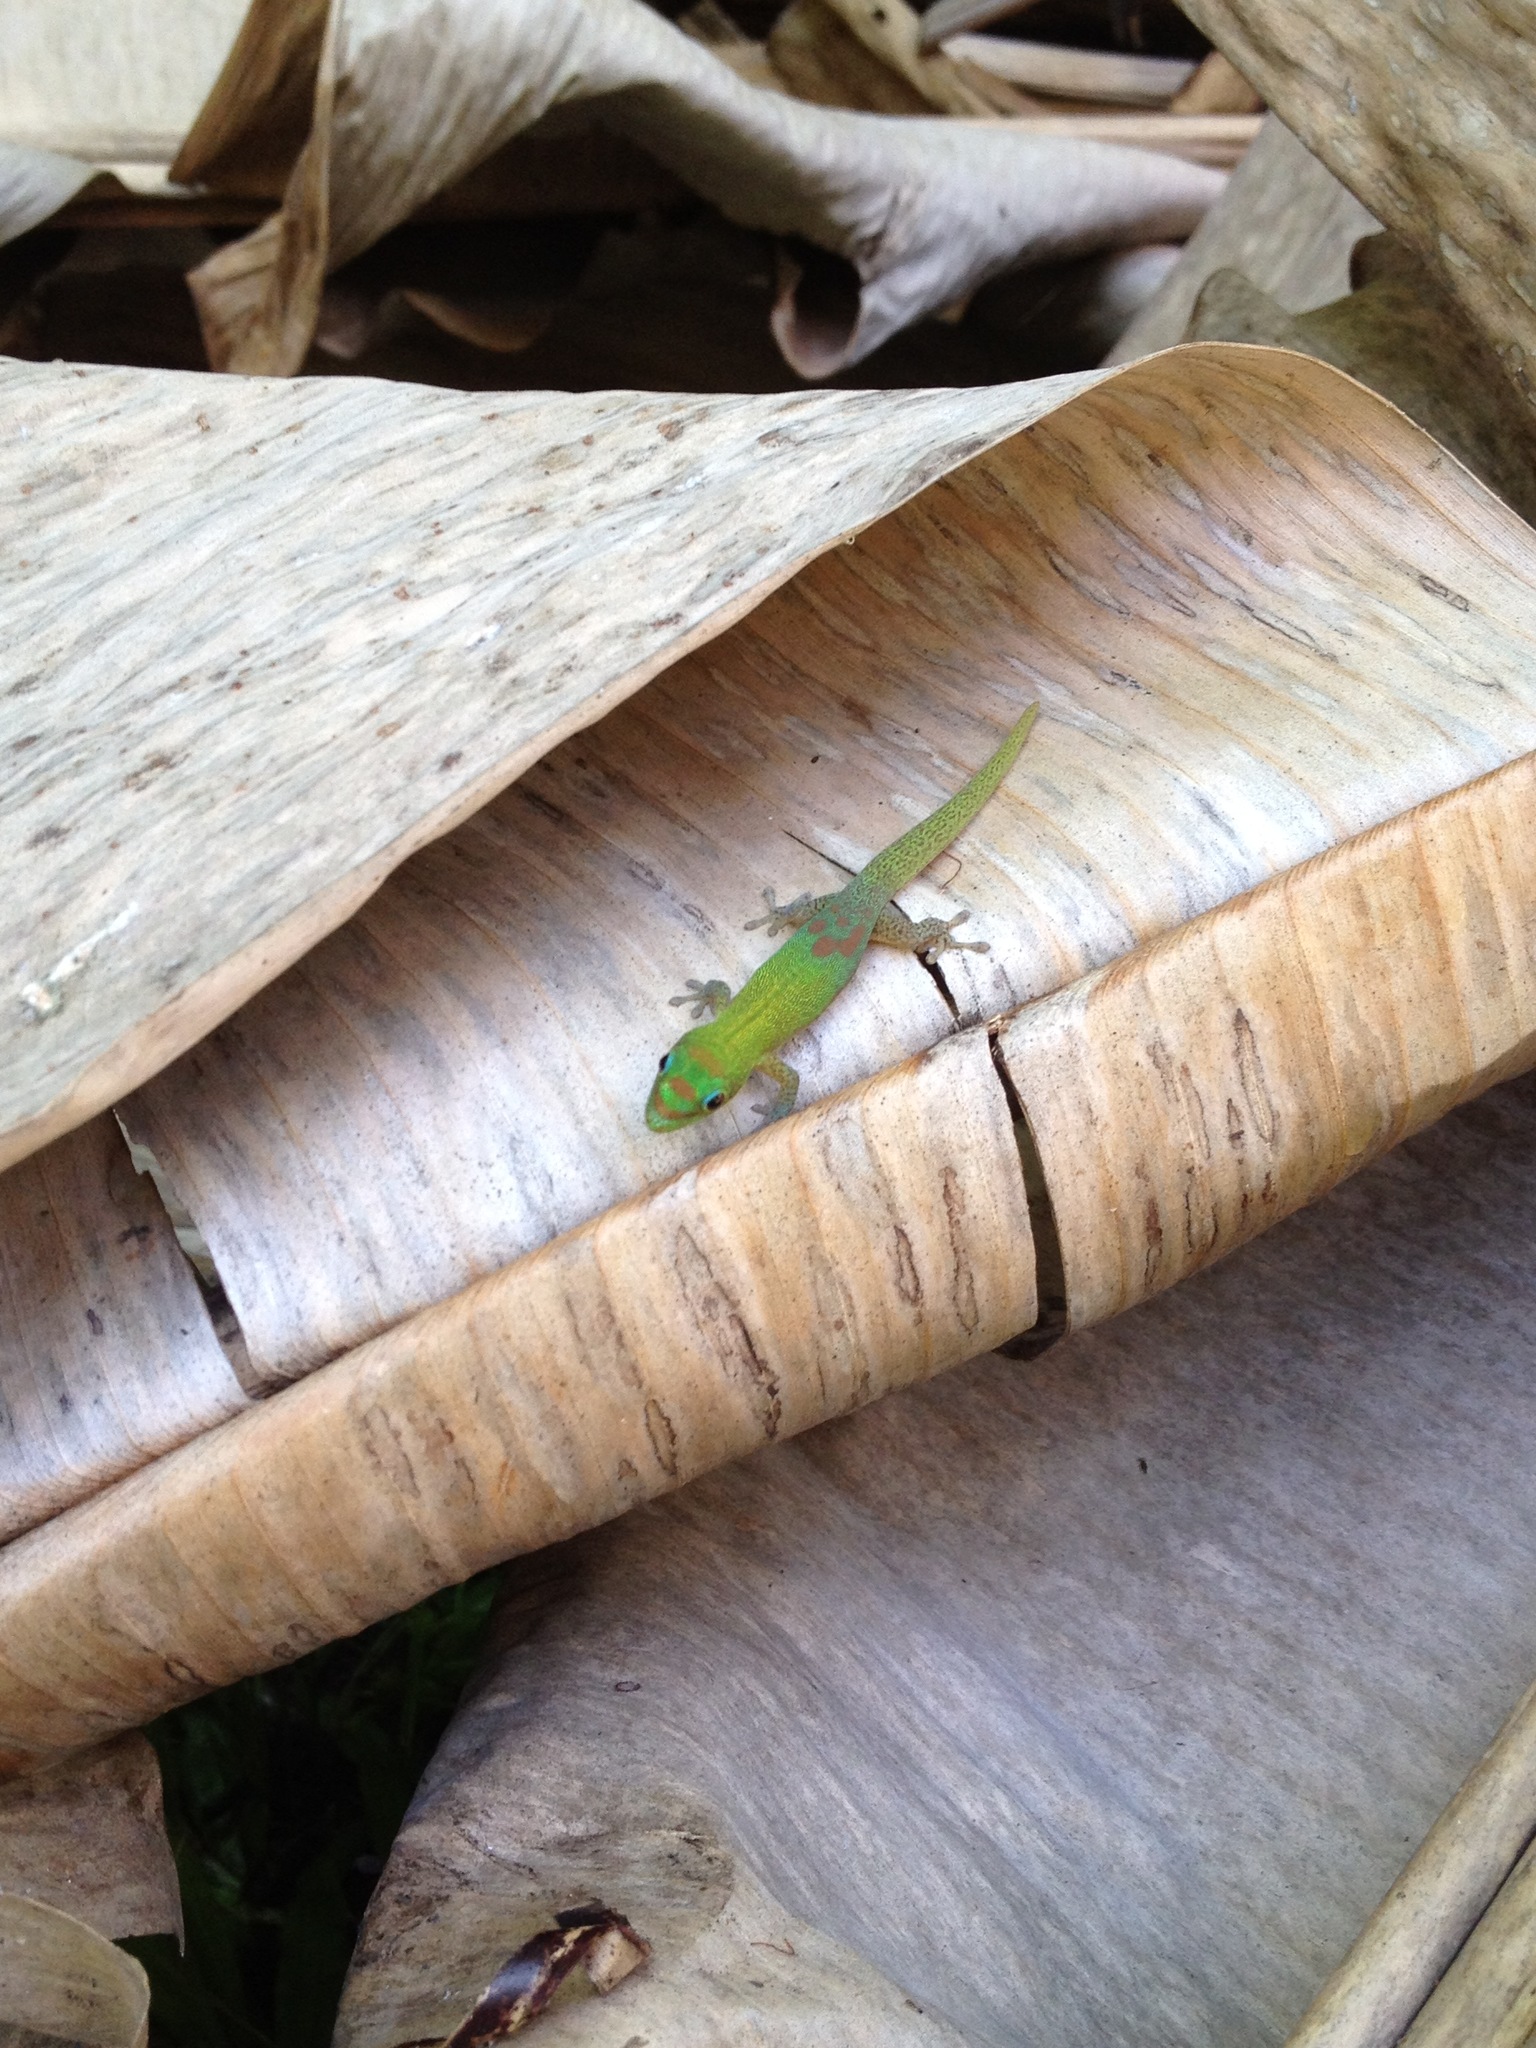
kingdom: Animalia
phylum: Chordata
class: Squamata
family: Gekkonidae
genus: Phelsuma
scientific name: Phelsuma laticauda
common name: Gold dust day gecko
